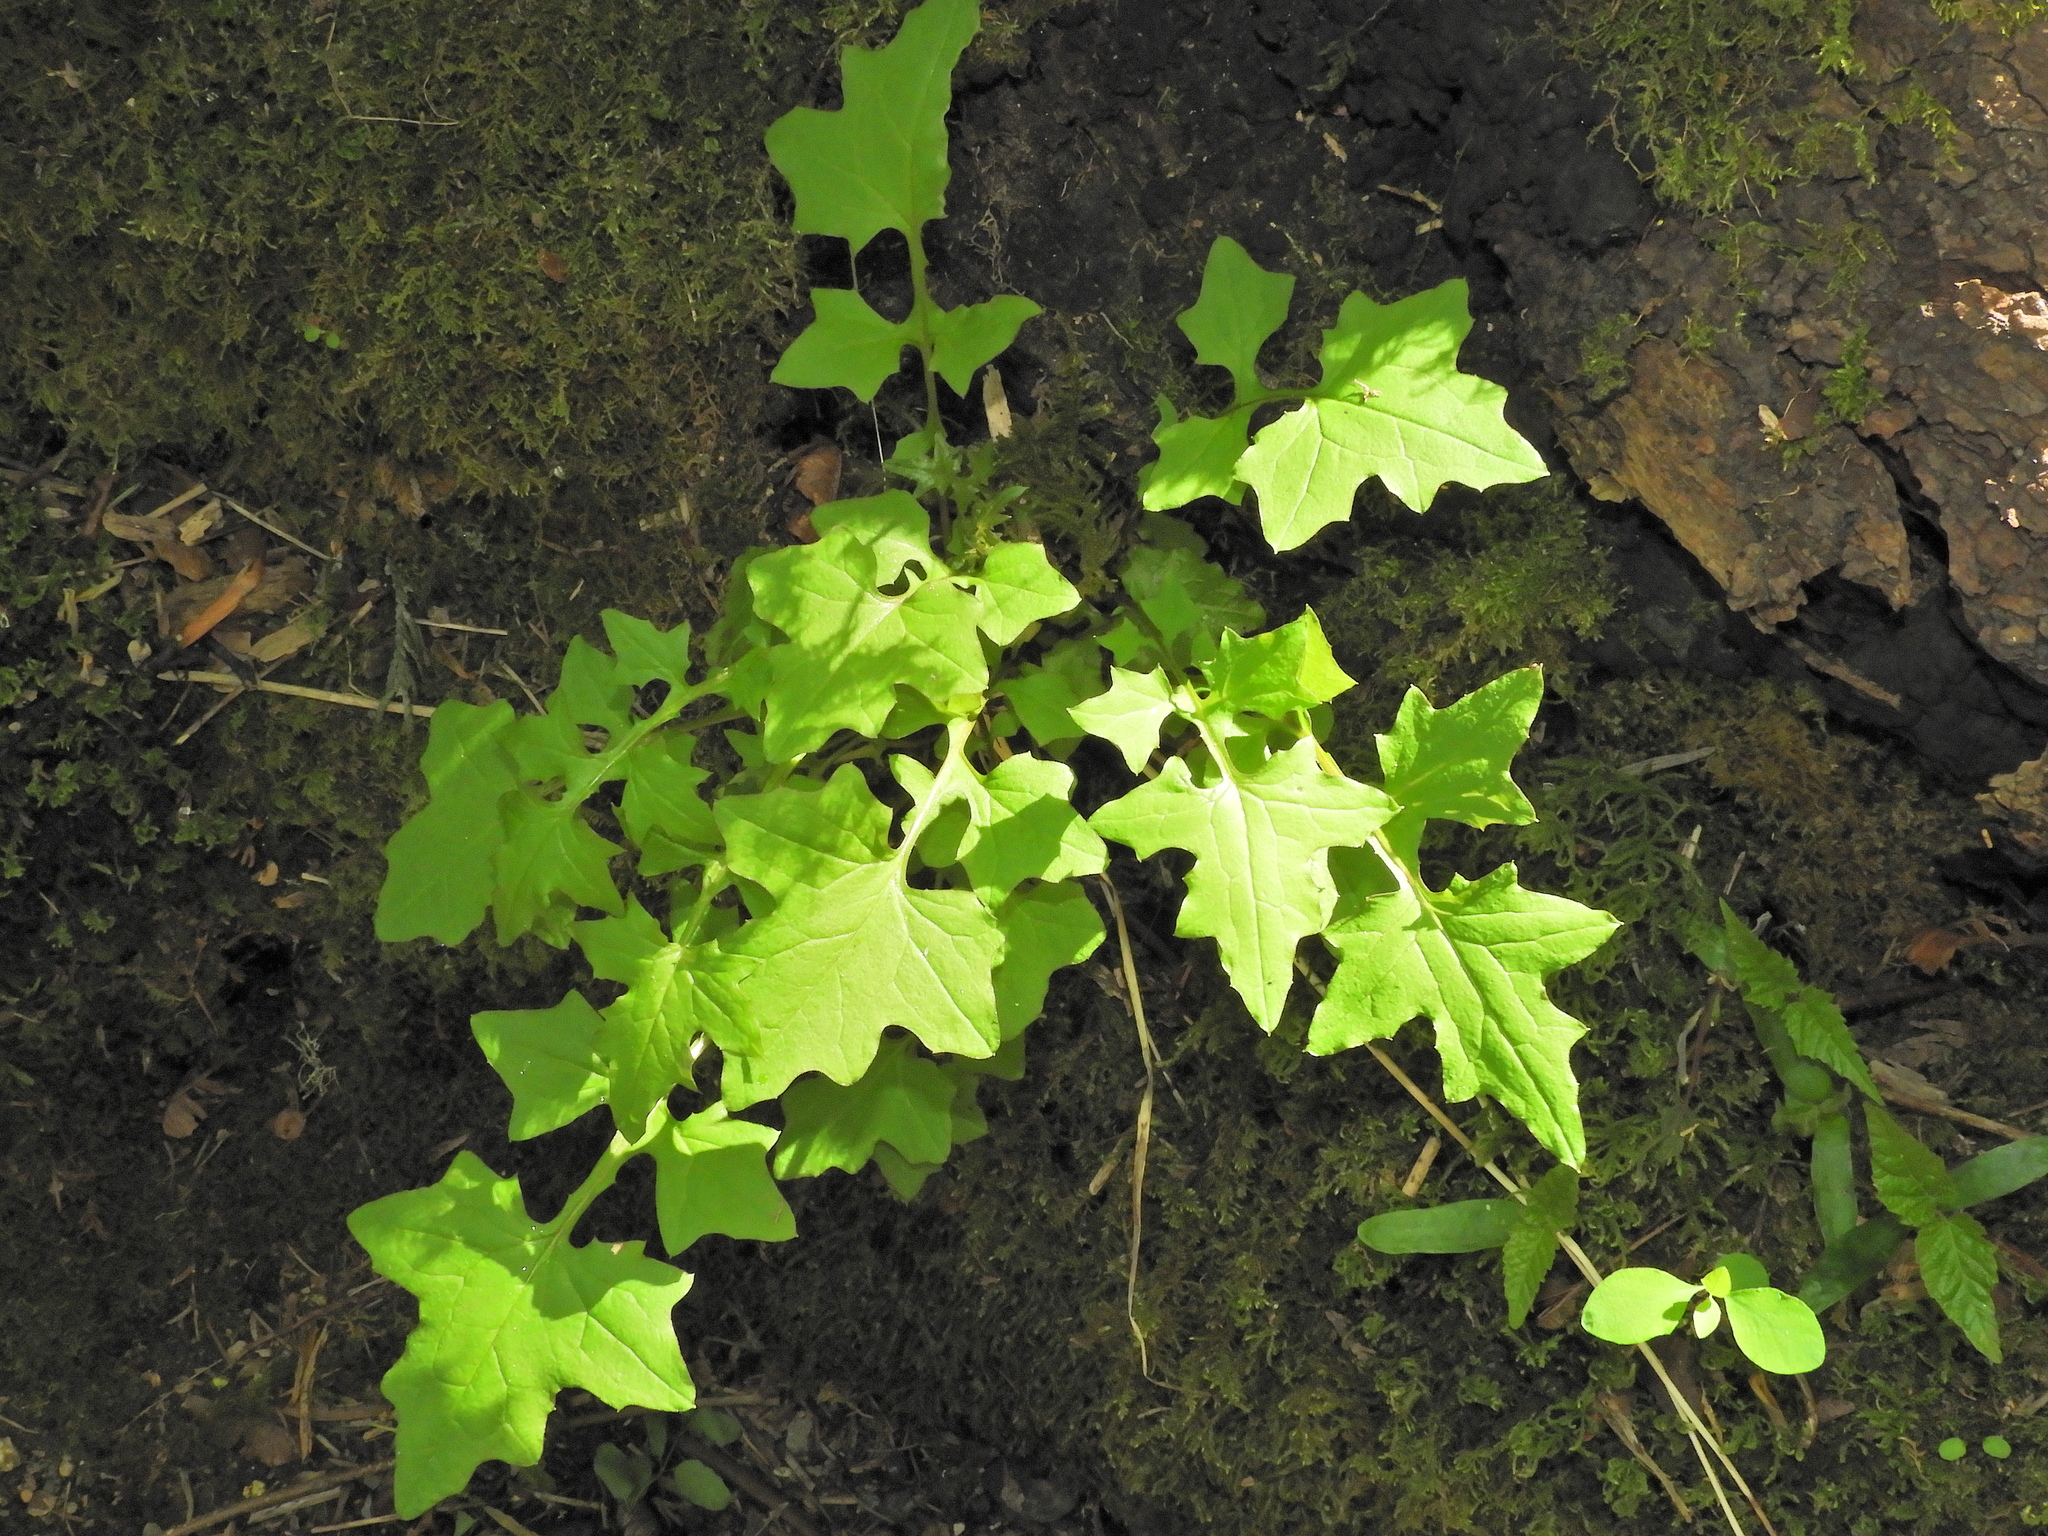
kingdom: Plantae
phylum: Tracheophyta
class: Magnoliopsida
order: Asterales
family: Asteraceae
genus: Mycelis
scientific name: Mycelis muralis
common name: Wall lettuce
